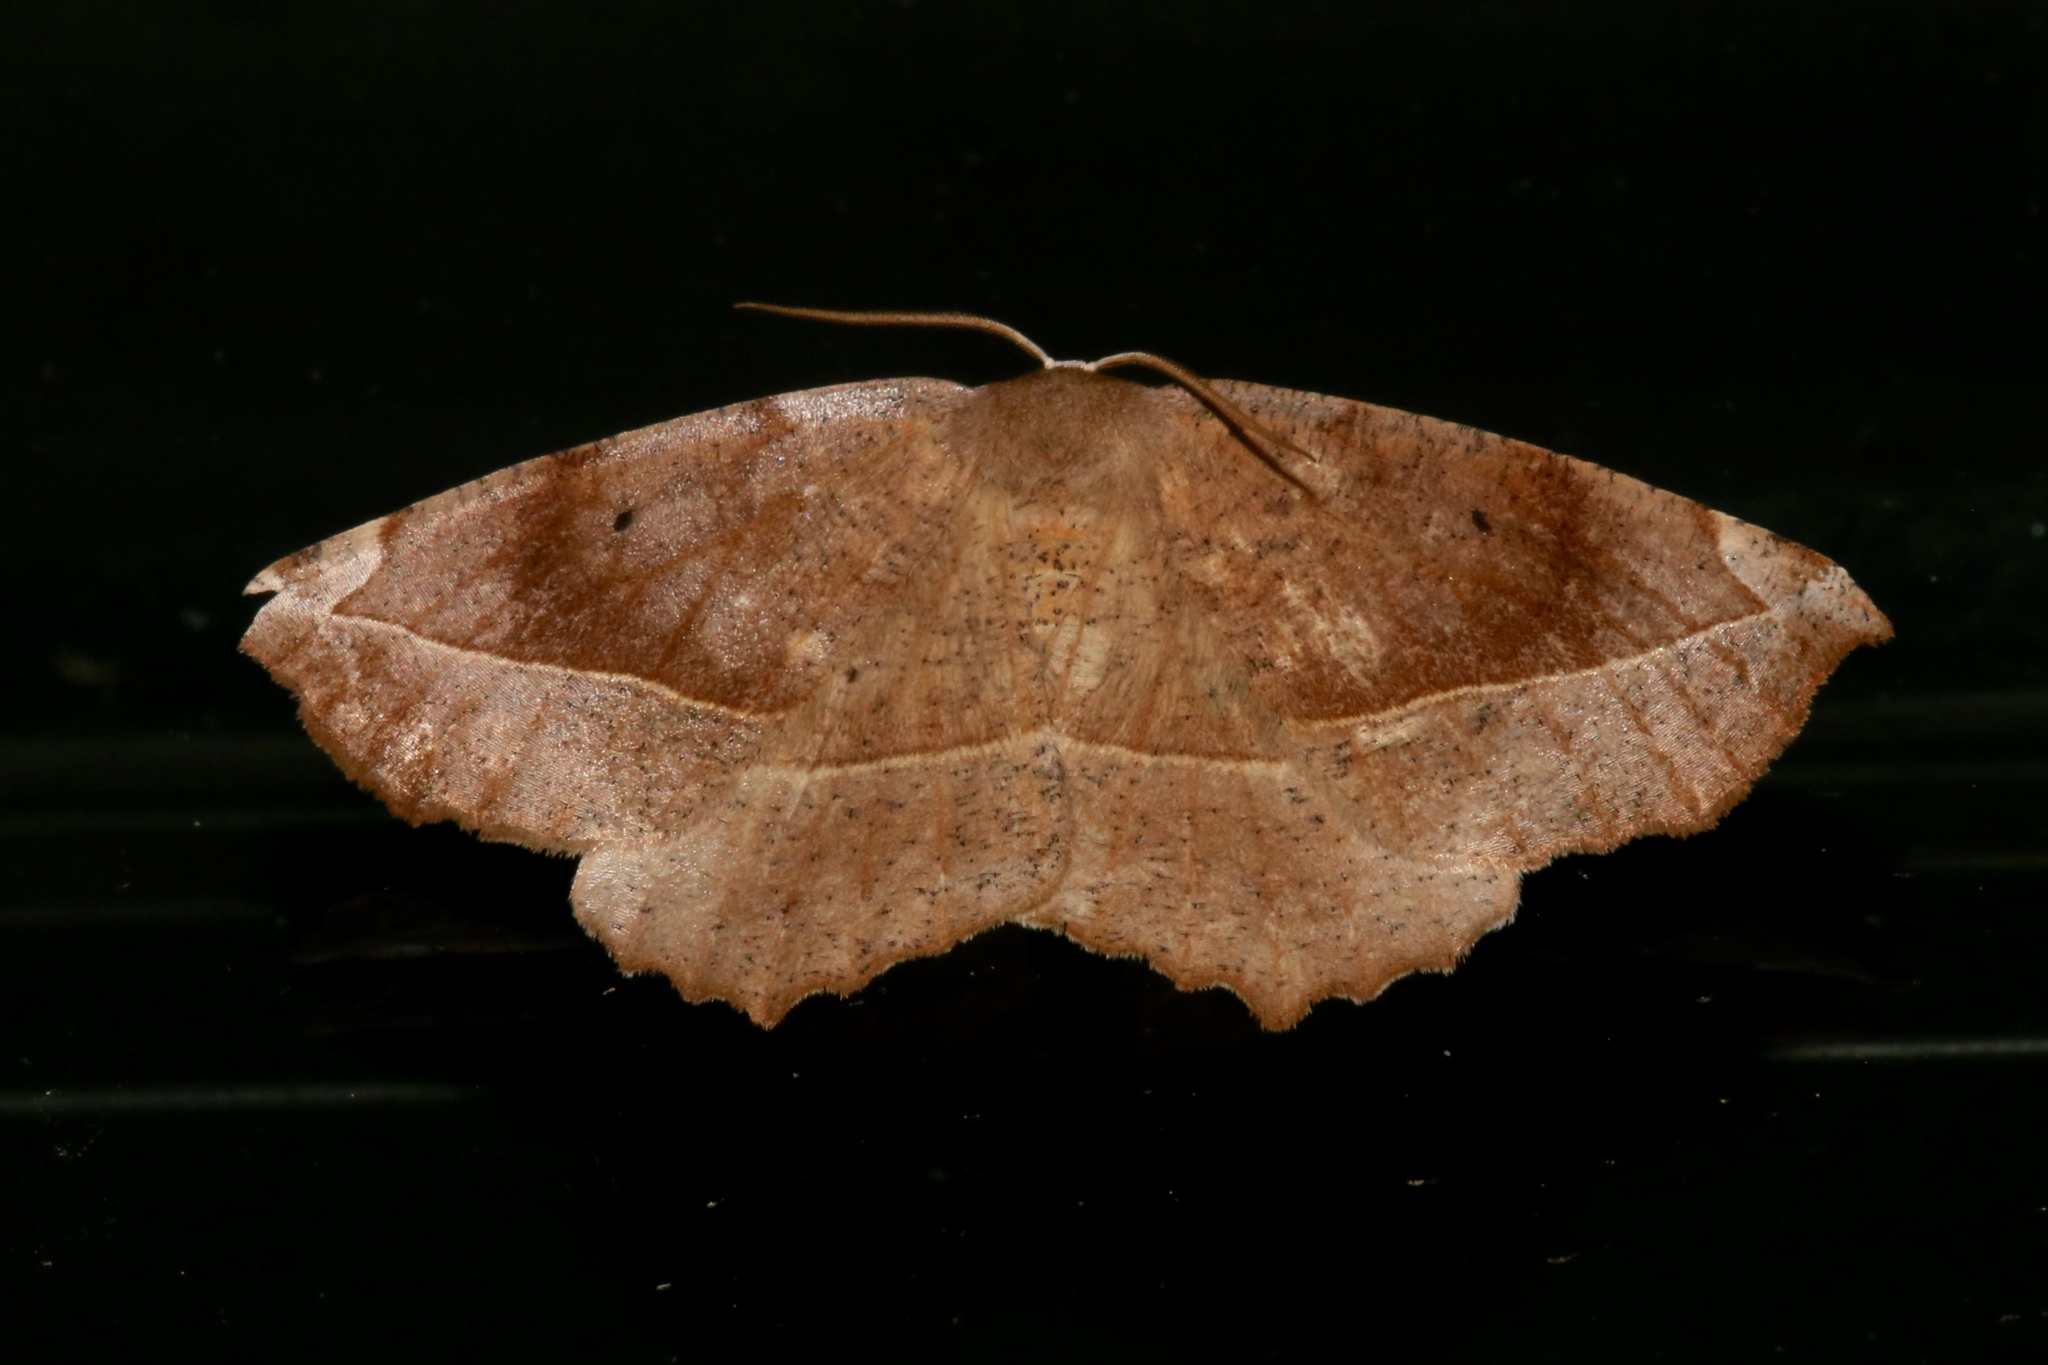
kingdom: Animalia
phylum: Arthropoda
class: Insecta
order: Lepidoptera
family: Geometridae
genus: Eutrapela
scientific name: Eutrapela clemataria
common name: Curved-toothed geometer
